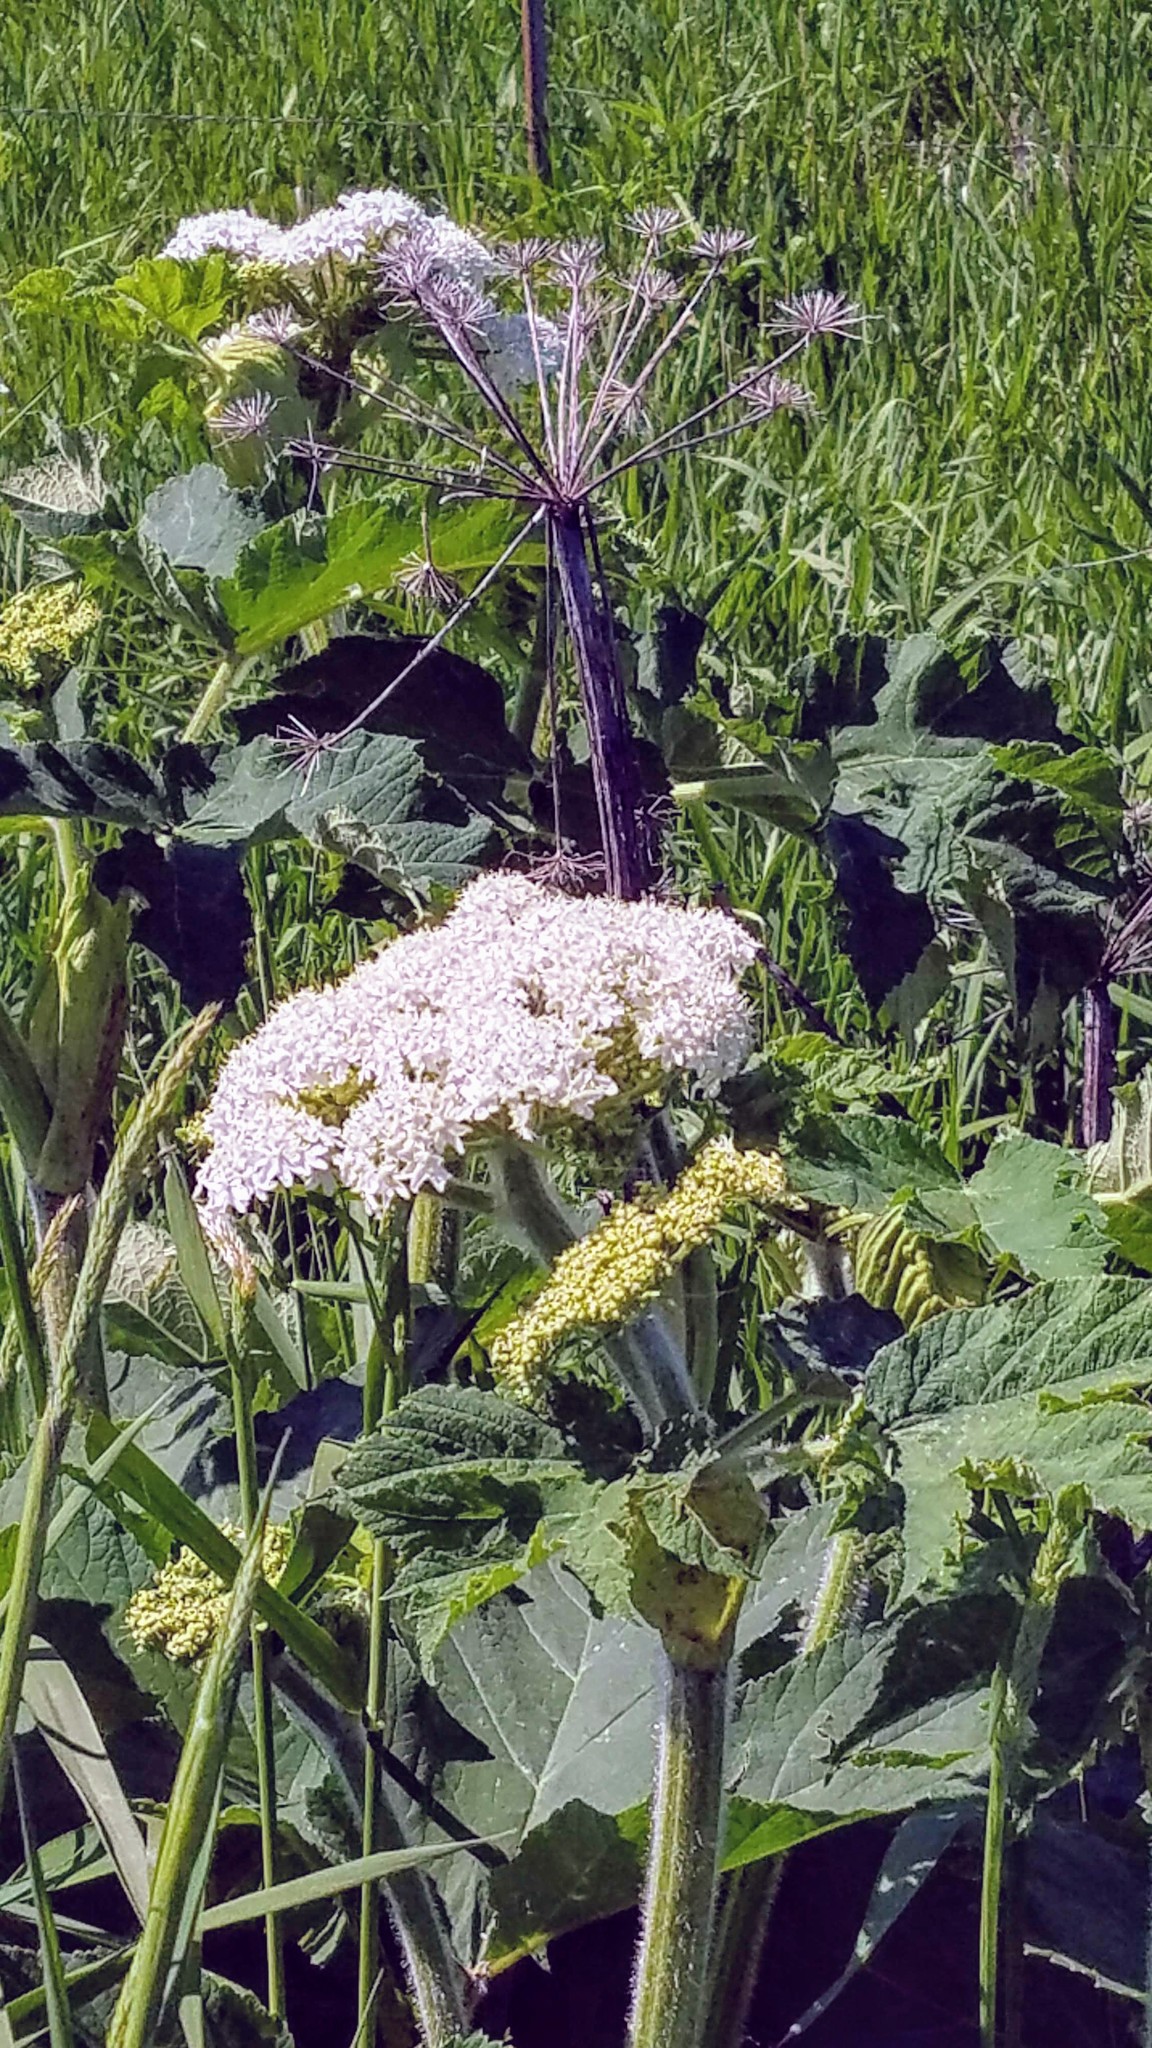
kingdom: Plantae
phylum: Tracheophyta
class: Magnoliopsida
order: Apiales
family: Apiaceae
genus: Heracleum
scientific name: Heracleum maximum
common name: American cow parsnip
